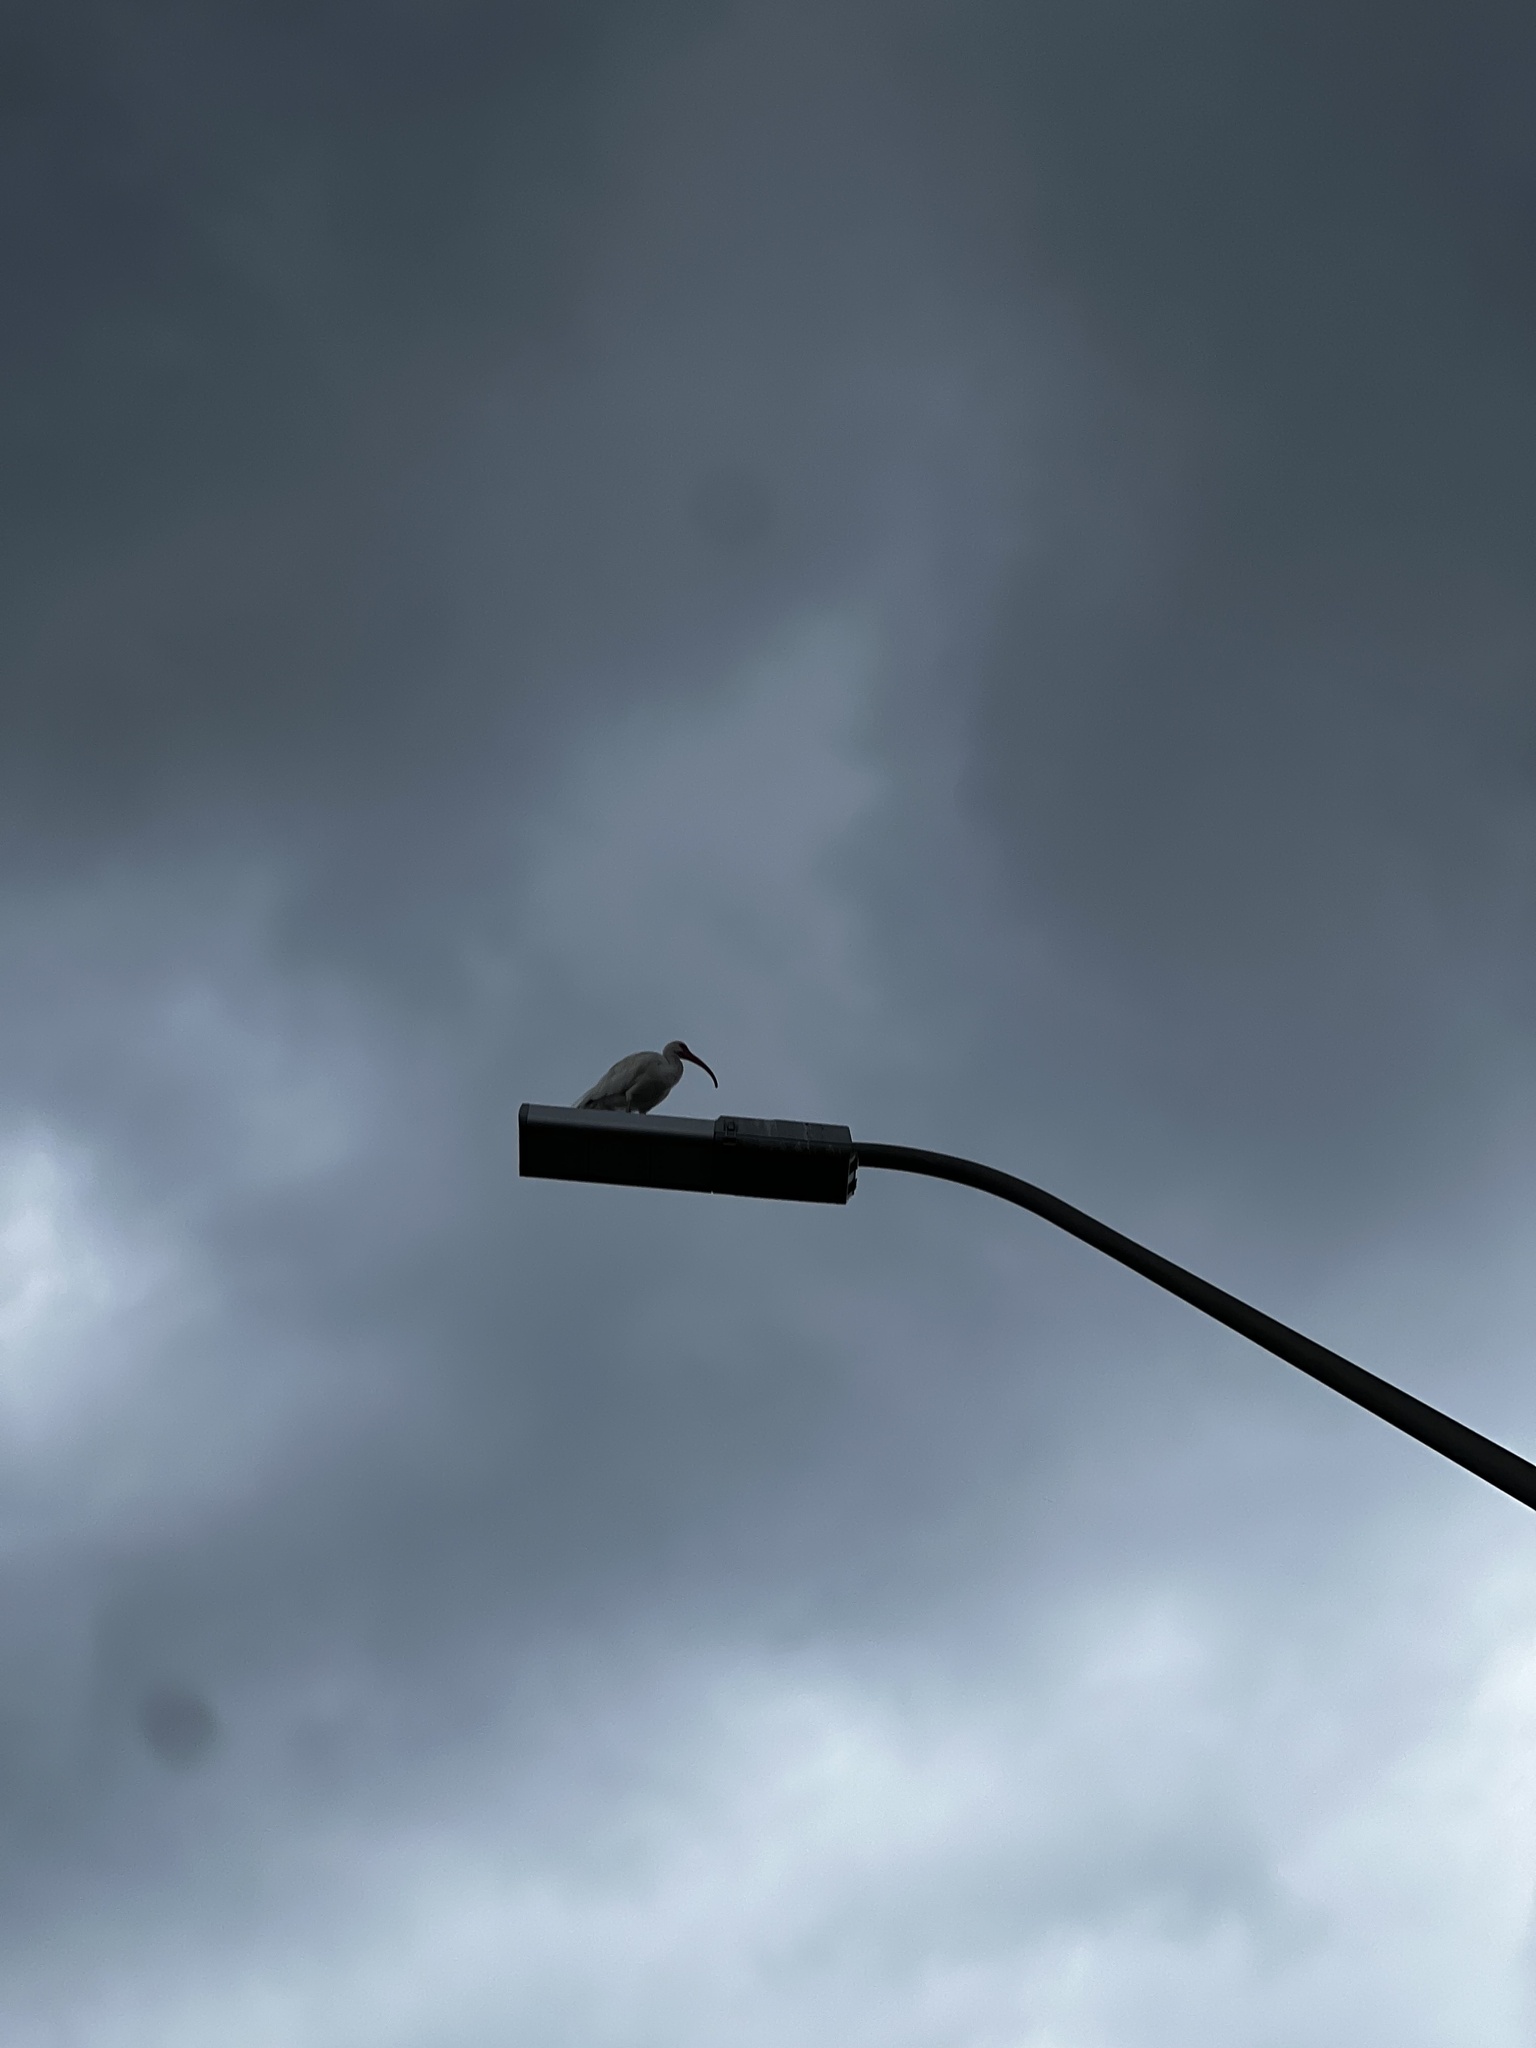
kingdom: Animalia
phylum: Chordata
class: Aves
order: Pelecaniformes
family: Threskiornithidae
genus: Eudocimus
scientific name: Eudocimus albus
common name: White ibis
